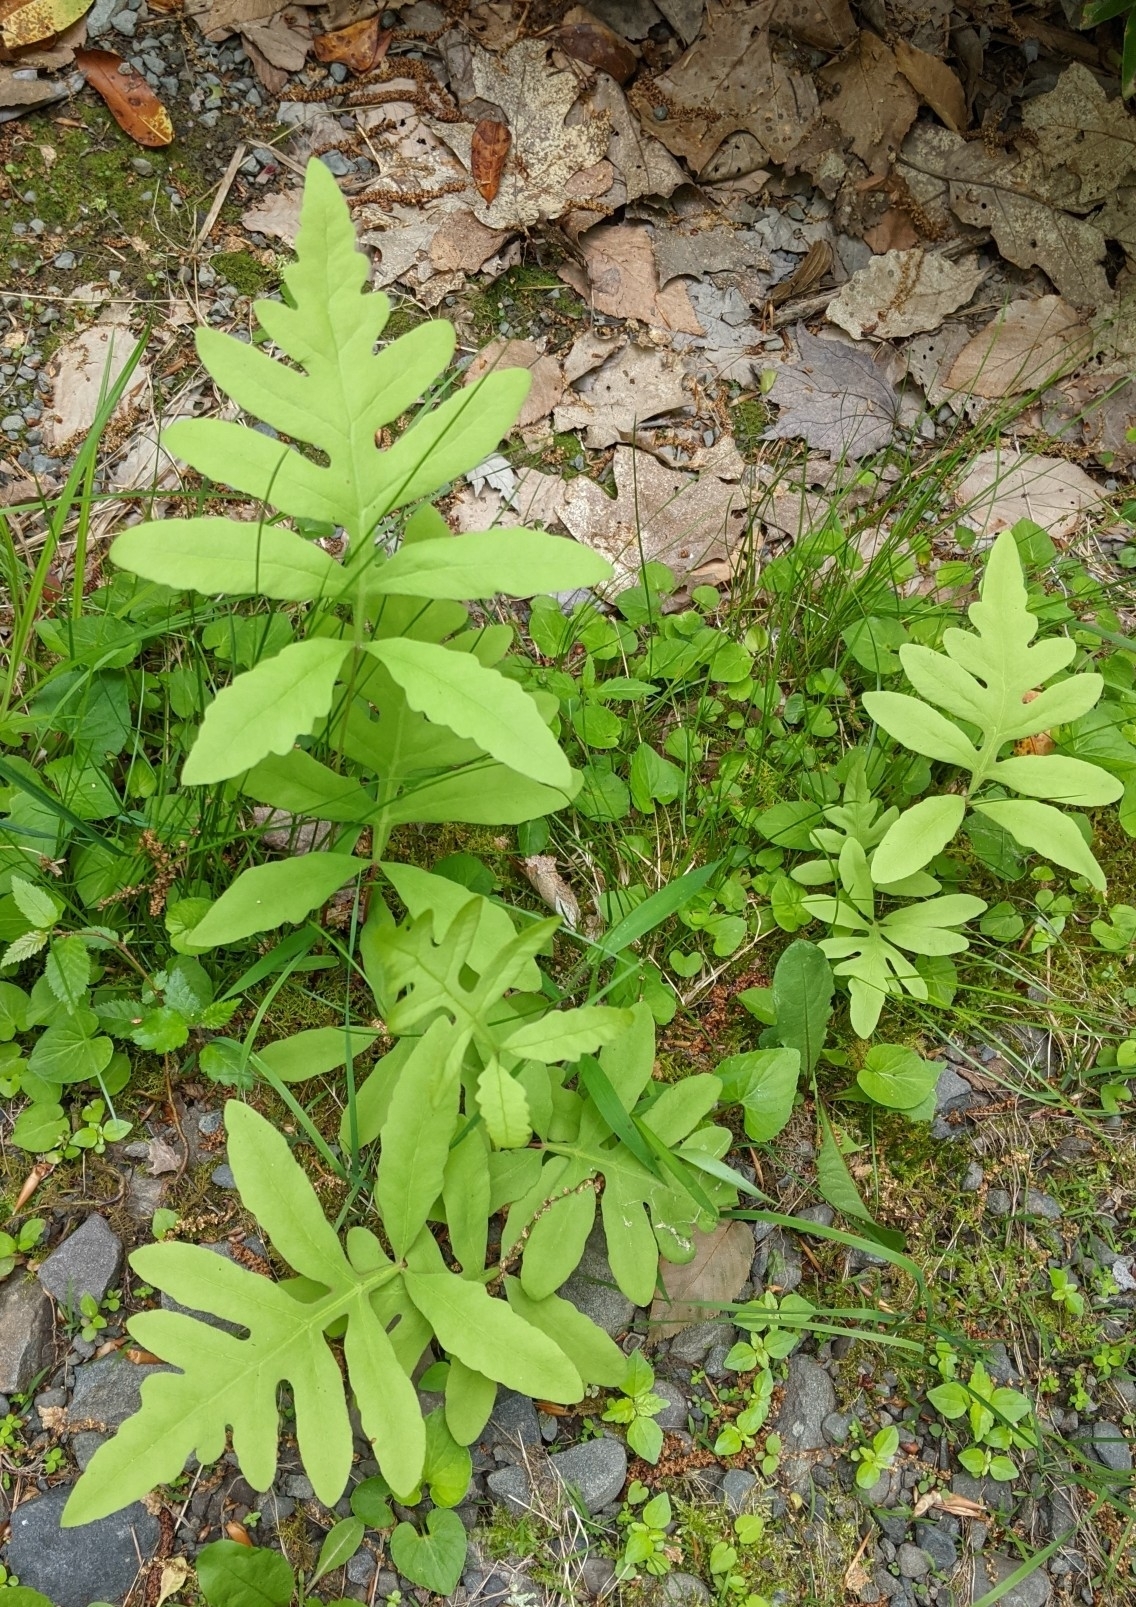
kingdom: Plantae
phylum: Tracheophyta
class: Polypodiopsida
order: Polypodiales
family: Onocleaceae
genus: Onoclea
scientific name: Onoclea sensibilis
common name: Sensitive fern
